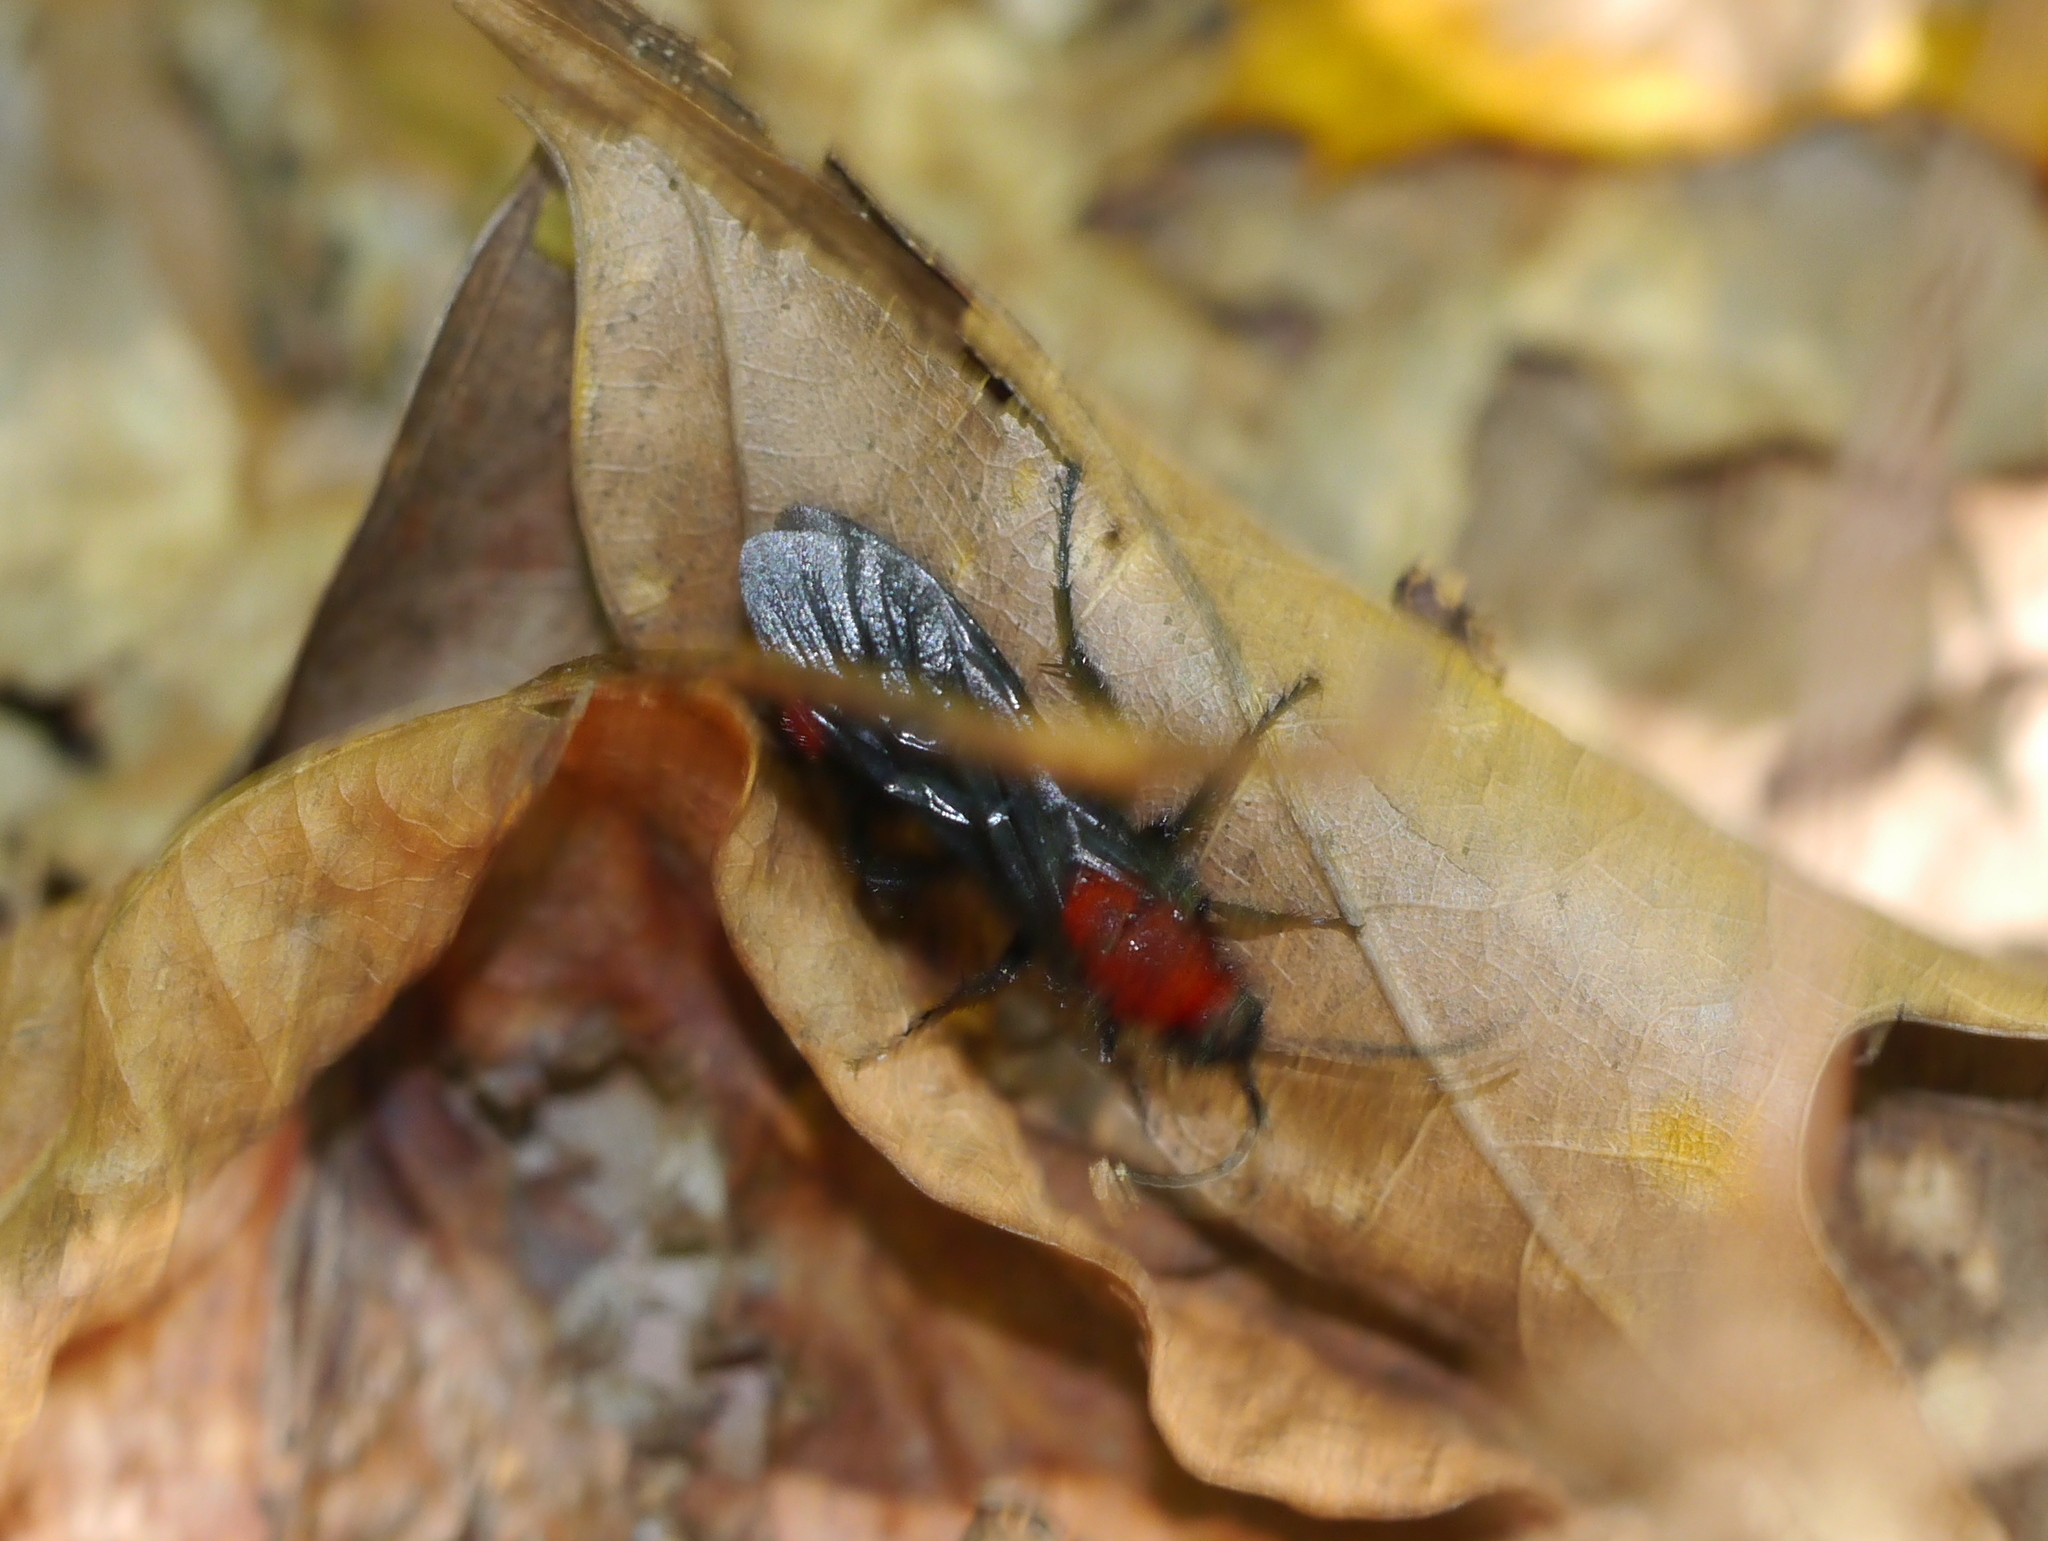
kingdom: Animalia
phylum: Arthropoda
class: Insecta
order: Hymenoptera
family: Mutillidae
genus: Dasymutilla
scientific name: Dasymutilla occidentalis
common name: Common eastern velvet ant
